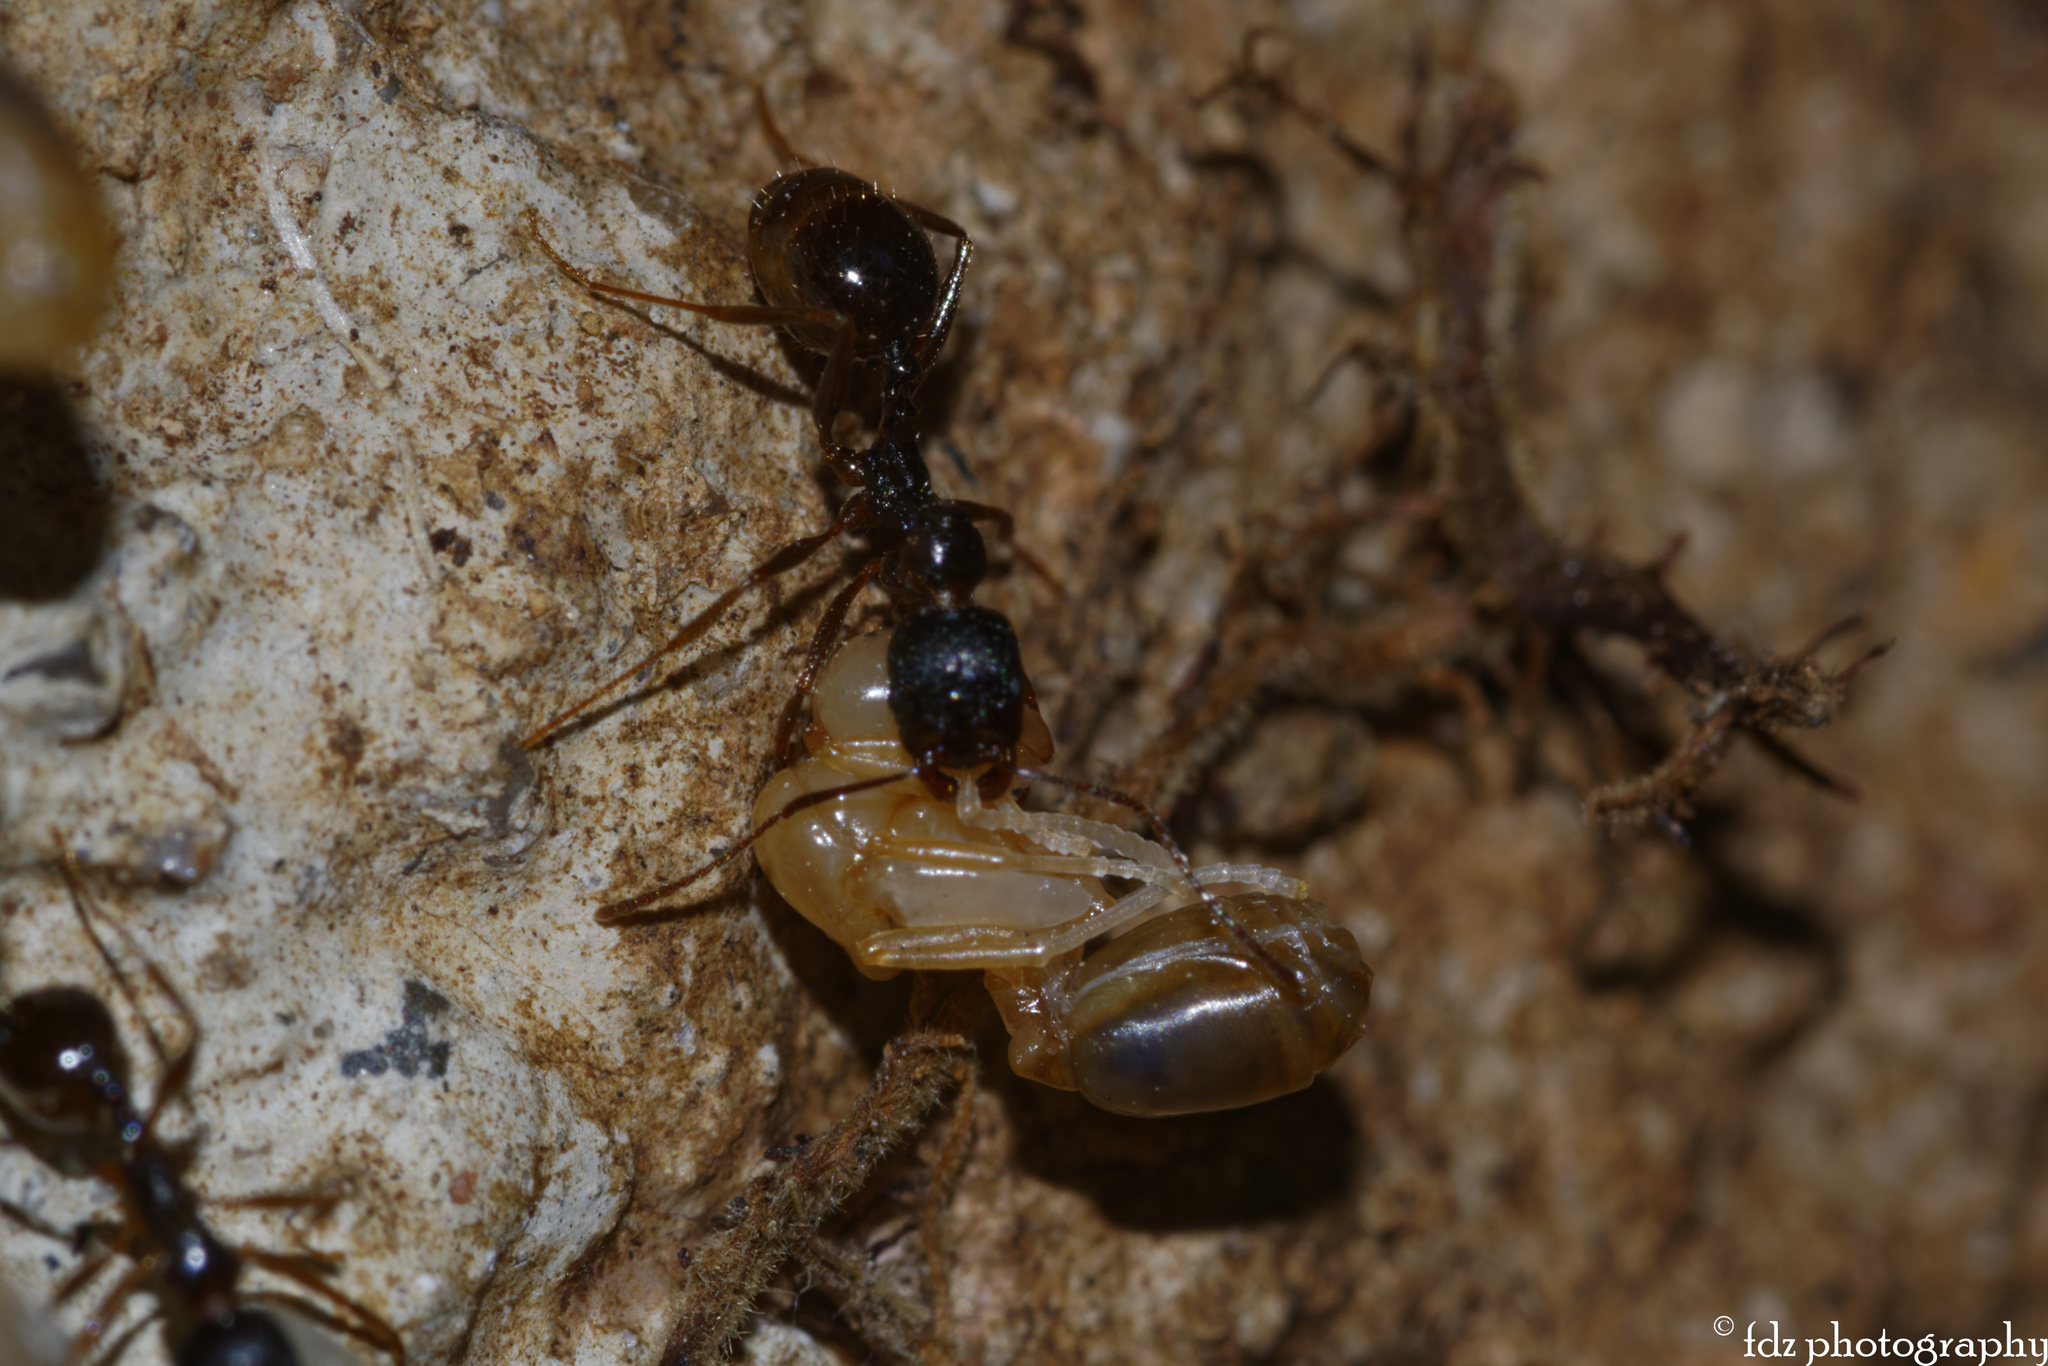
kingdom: Animalia
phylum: Arthropoda
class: Insecta
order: Hymenoptera
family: Formicidae
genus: Aphaenogaster
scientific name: Aphaenogaster gibbosa
